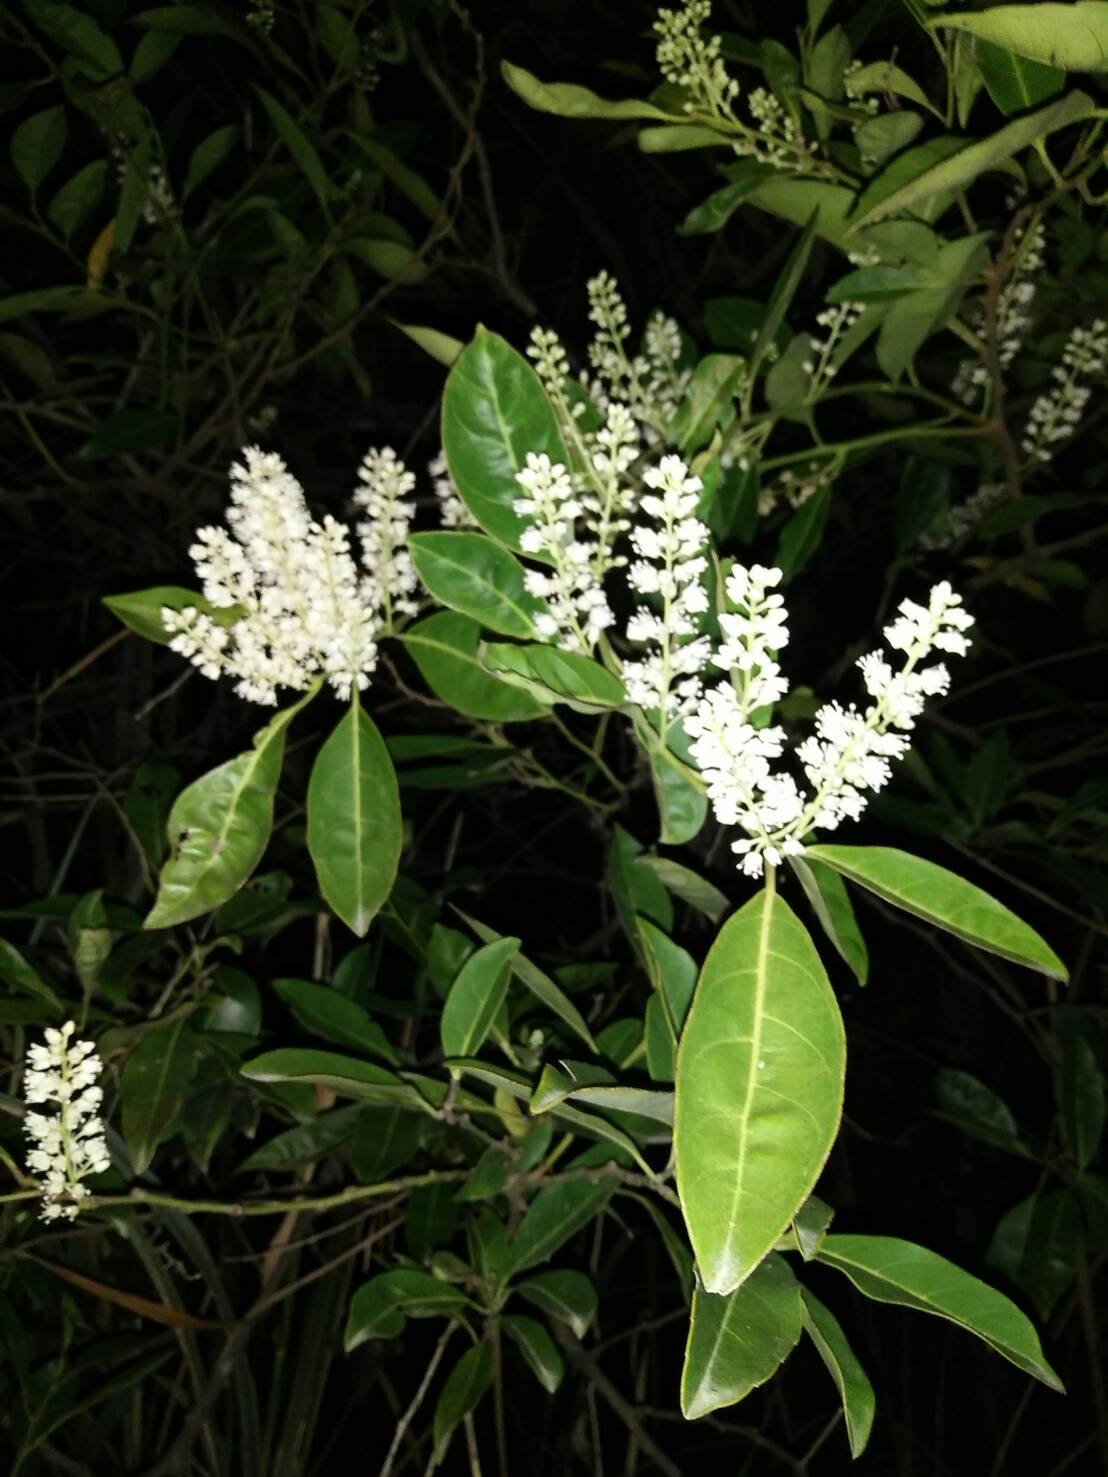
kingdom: Plantae
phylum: Tracheophyta
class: Magnoliopsida
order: Saxifragales
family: Iteaceae
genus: Itea
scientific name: Itea oldhamii
